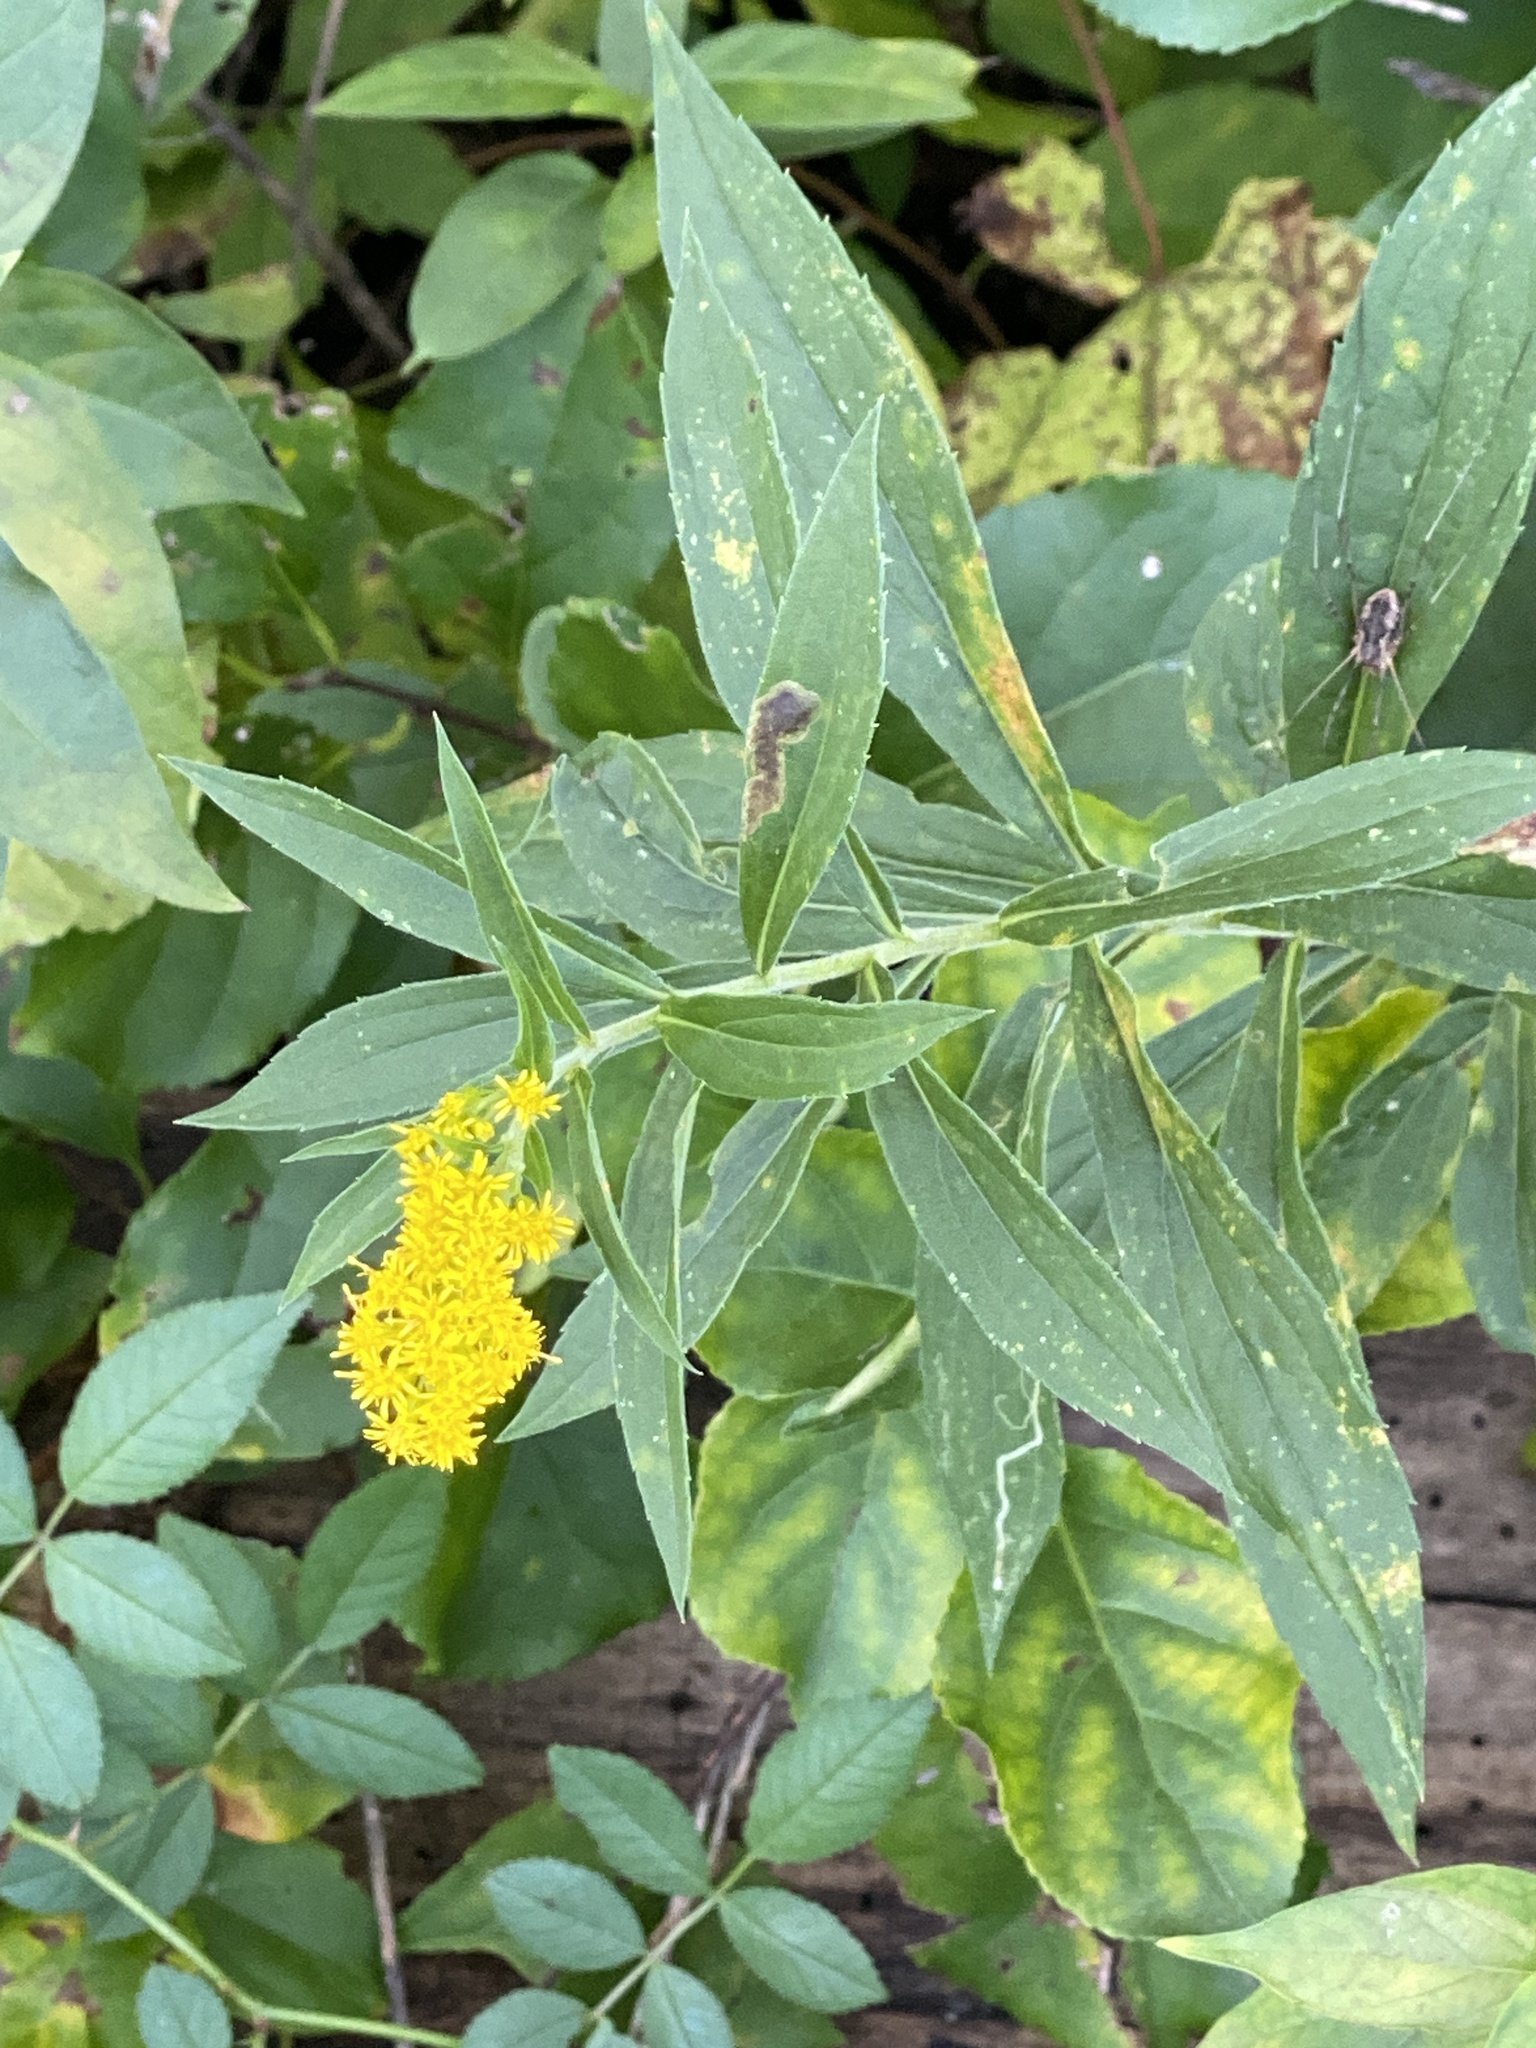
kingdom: Plantae
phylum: Tracheophyta
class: Magnoliopsida
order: Asterales
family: Asteraceae
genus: Solidago
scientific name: Solidago altissima
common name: Late goldenrod
